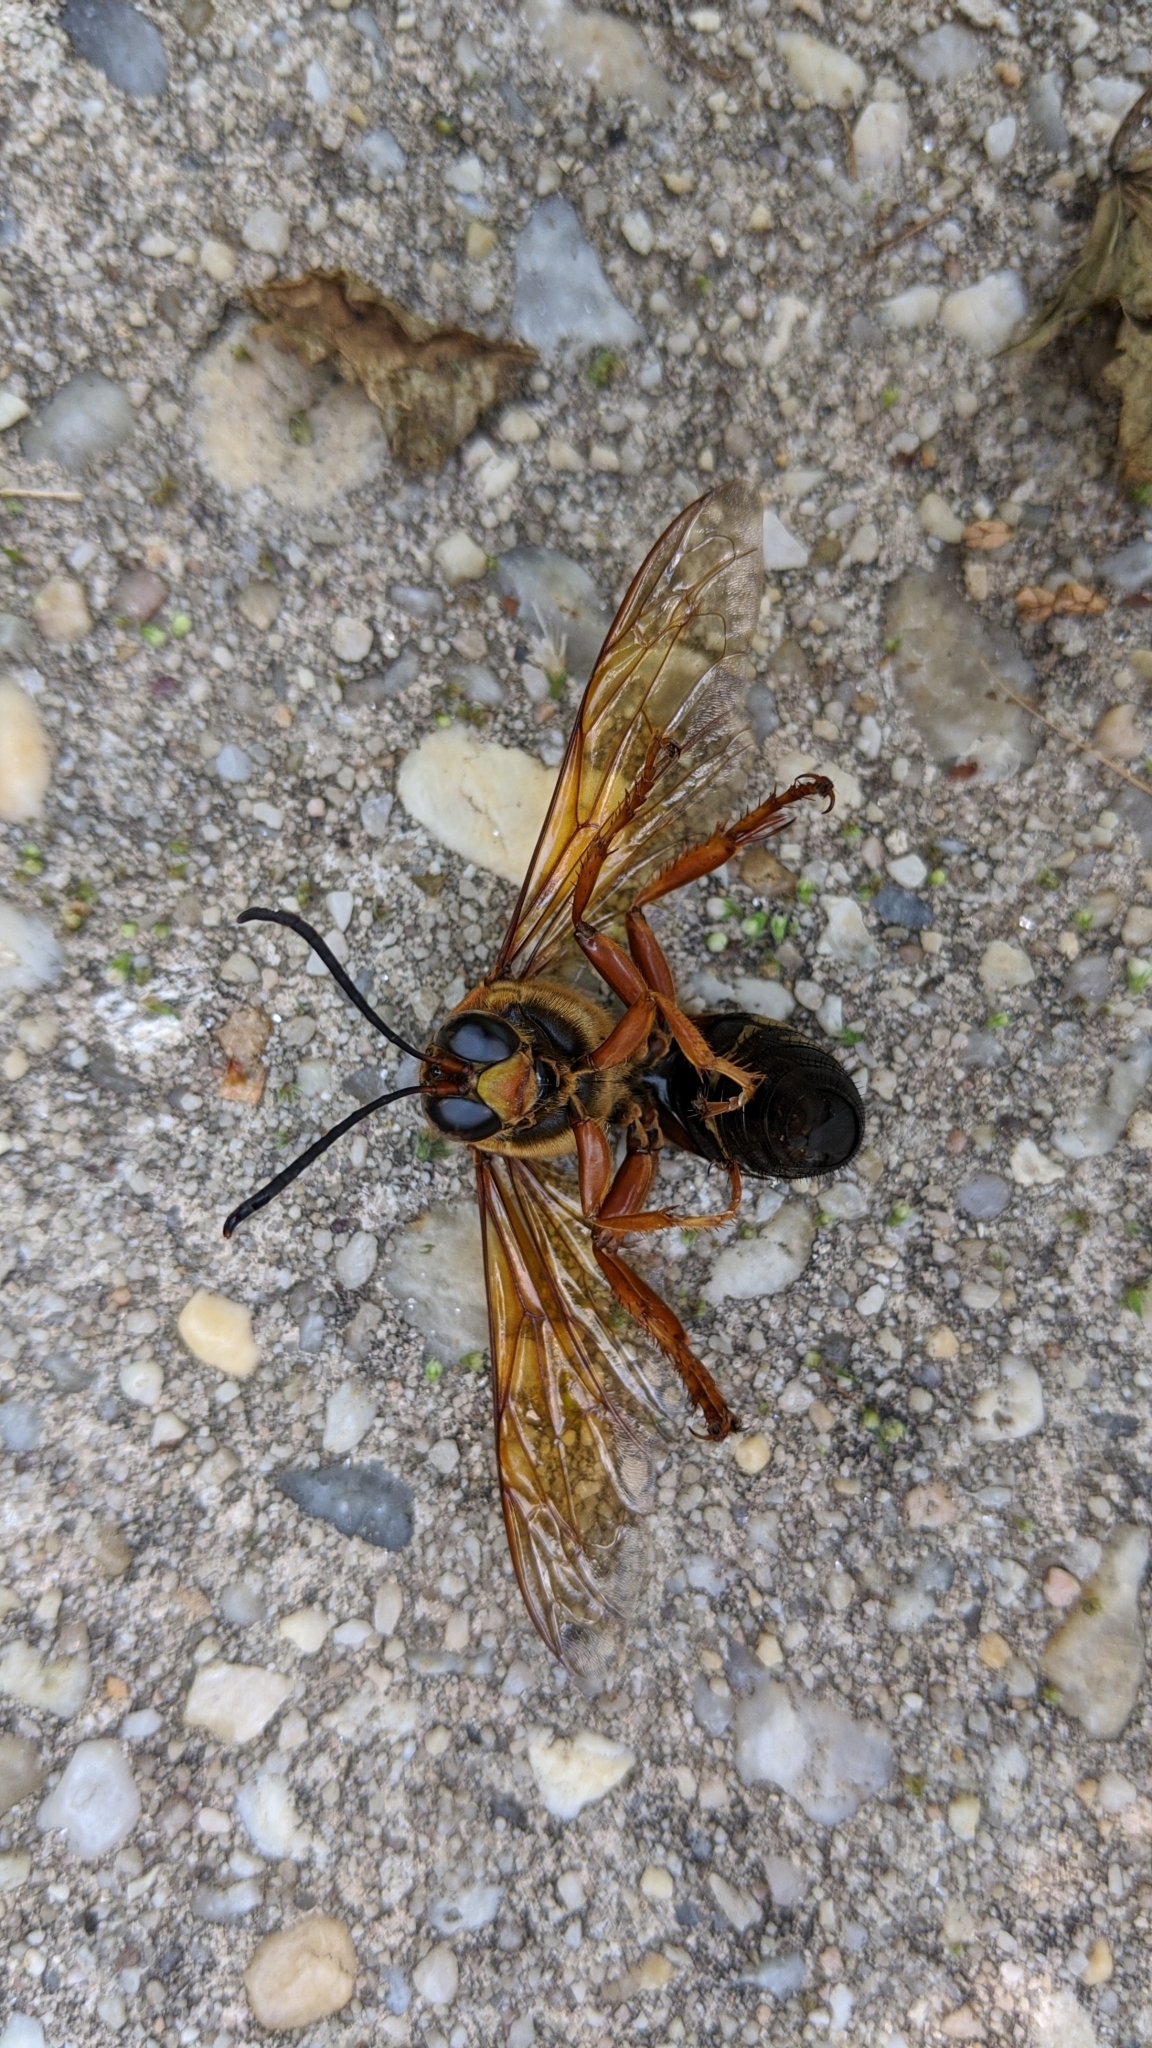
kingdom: Animalia
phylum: Arthropoda
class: Insecta
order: Hymenoptera
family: Crabronidae
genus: Sphecius
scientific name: Sphecius speciosus
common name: Cicada killer
